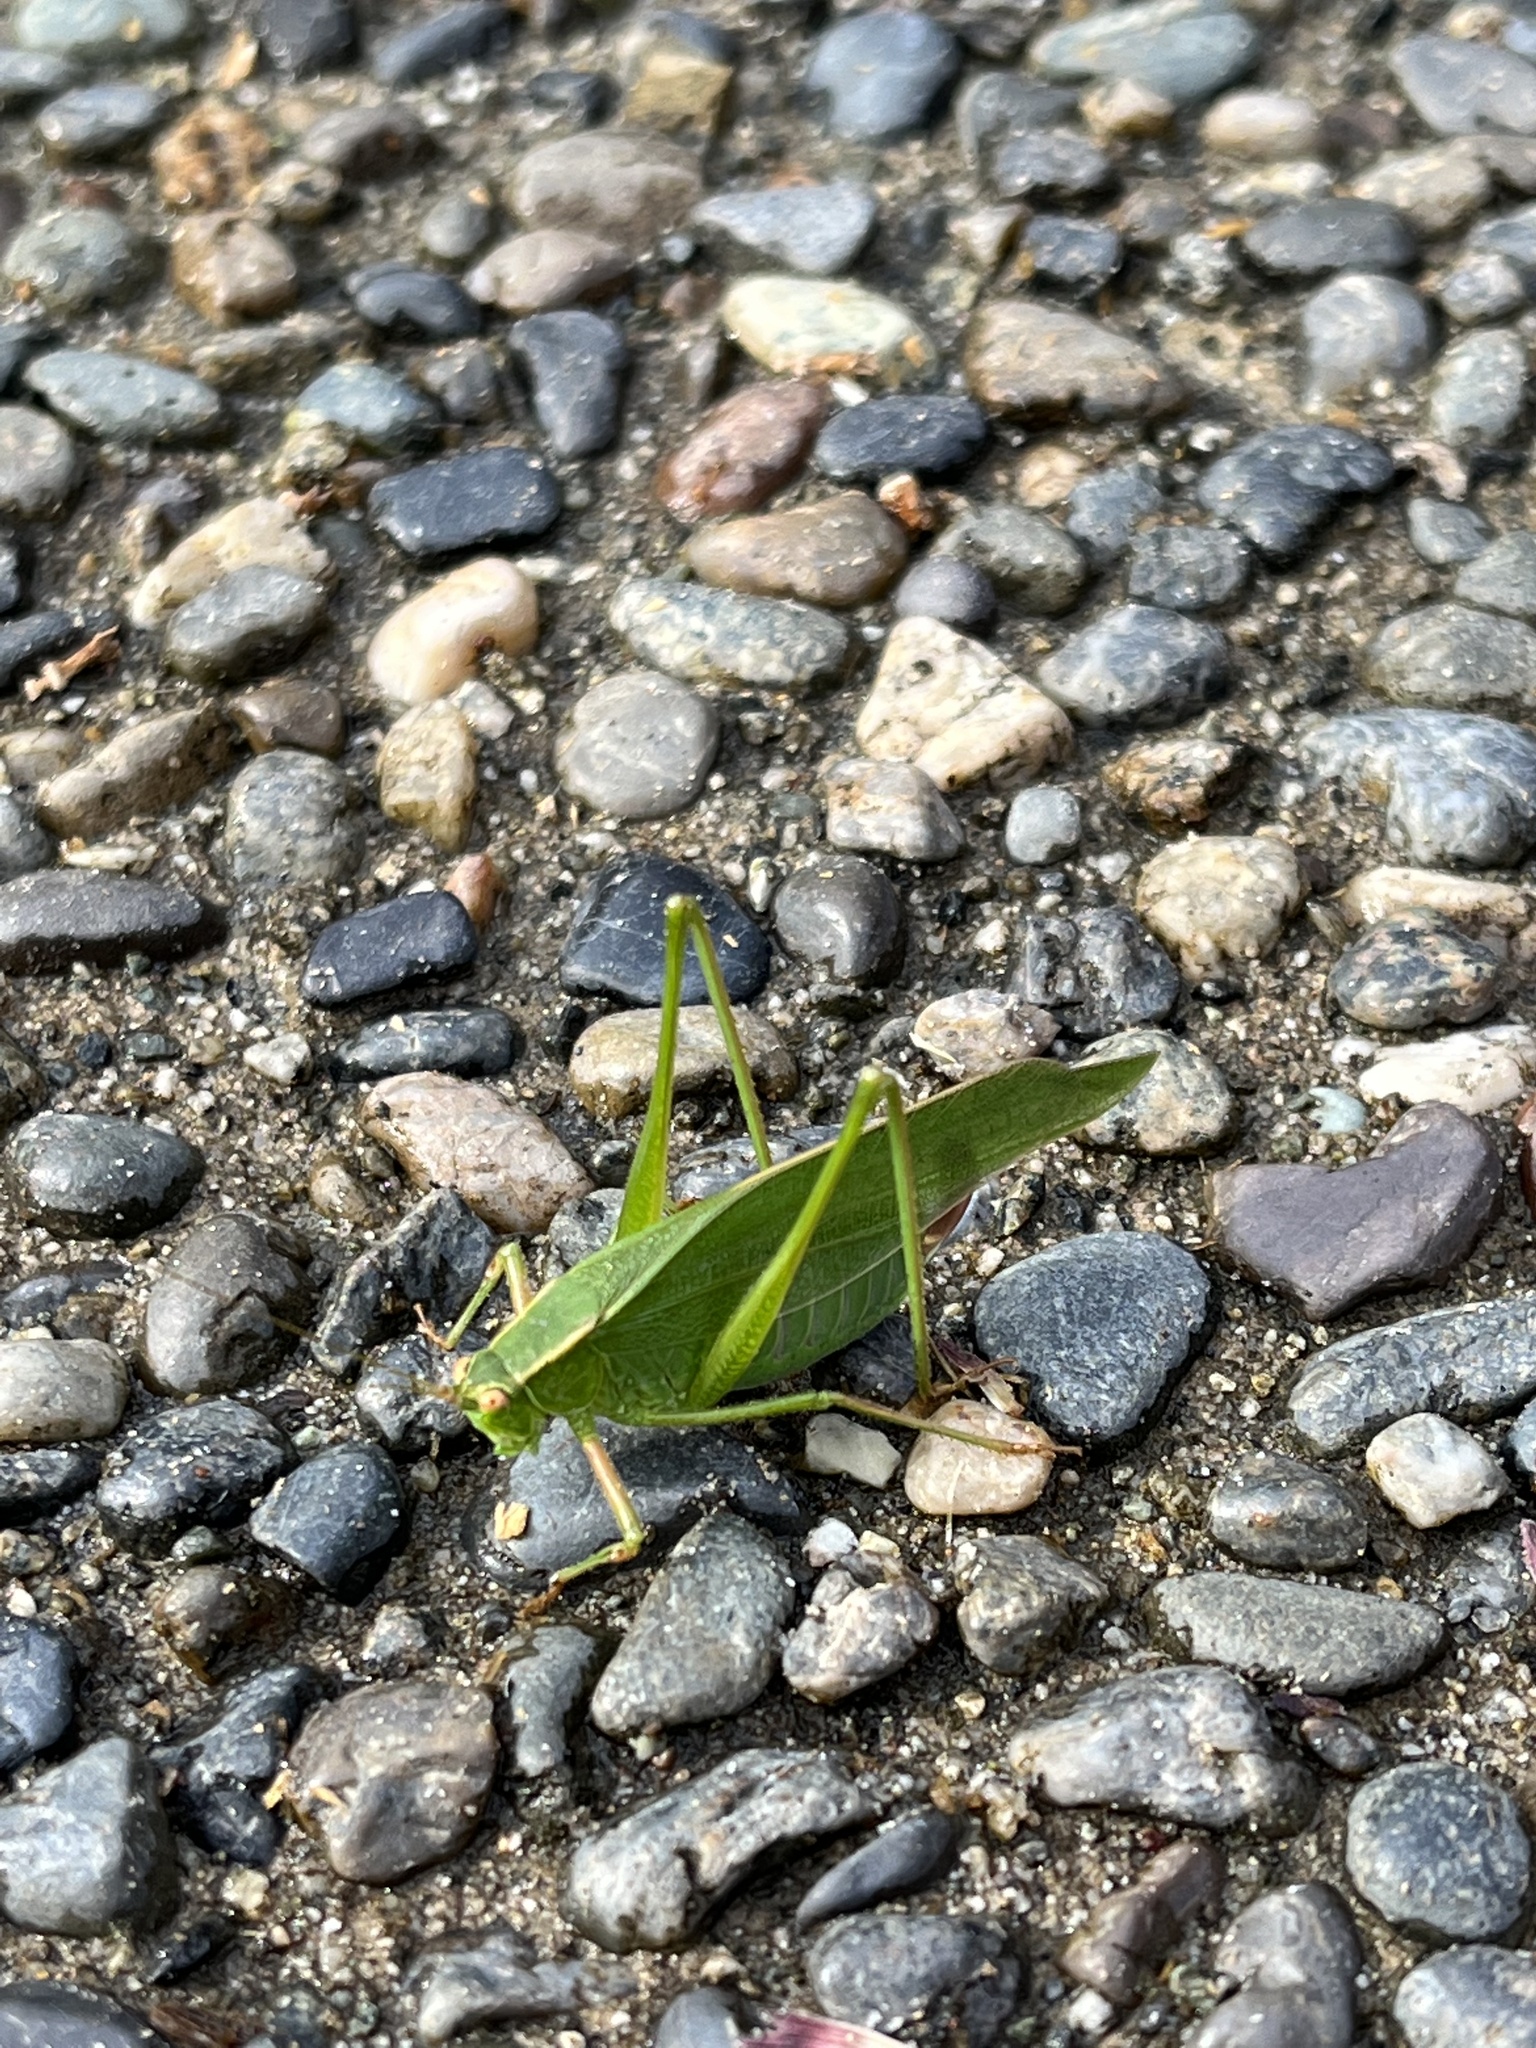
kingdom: Animalia
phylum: Arthropoda
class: Insecta
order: Orthoptera
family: Tettigoniidae
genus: Scudderia
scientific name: Scudderia furcata
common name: Fork-tailed bush katydid
